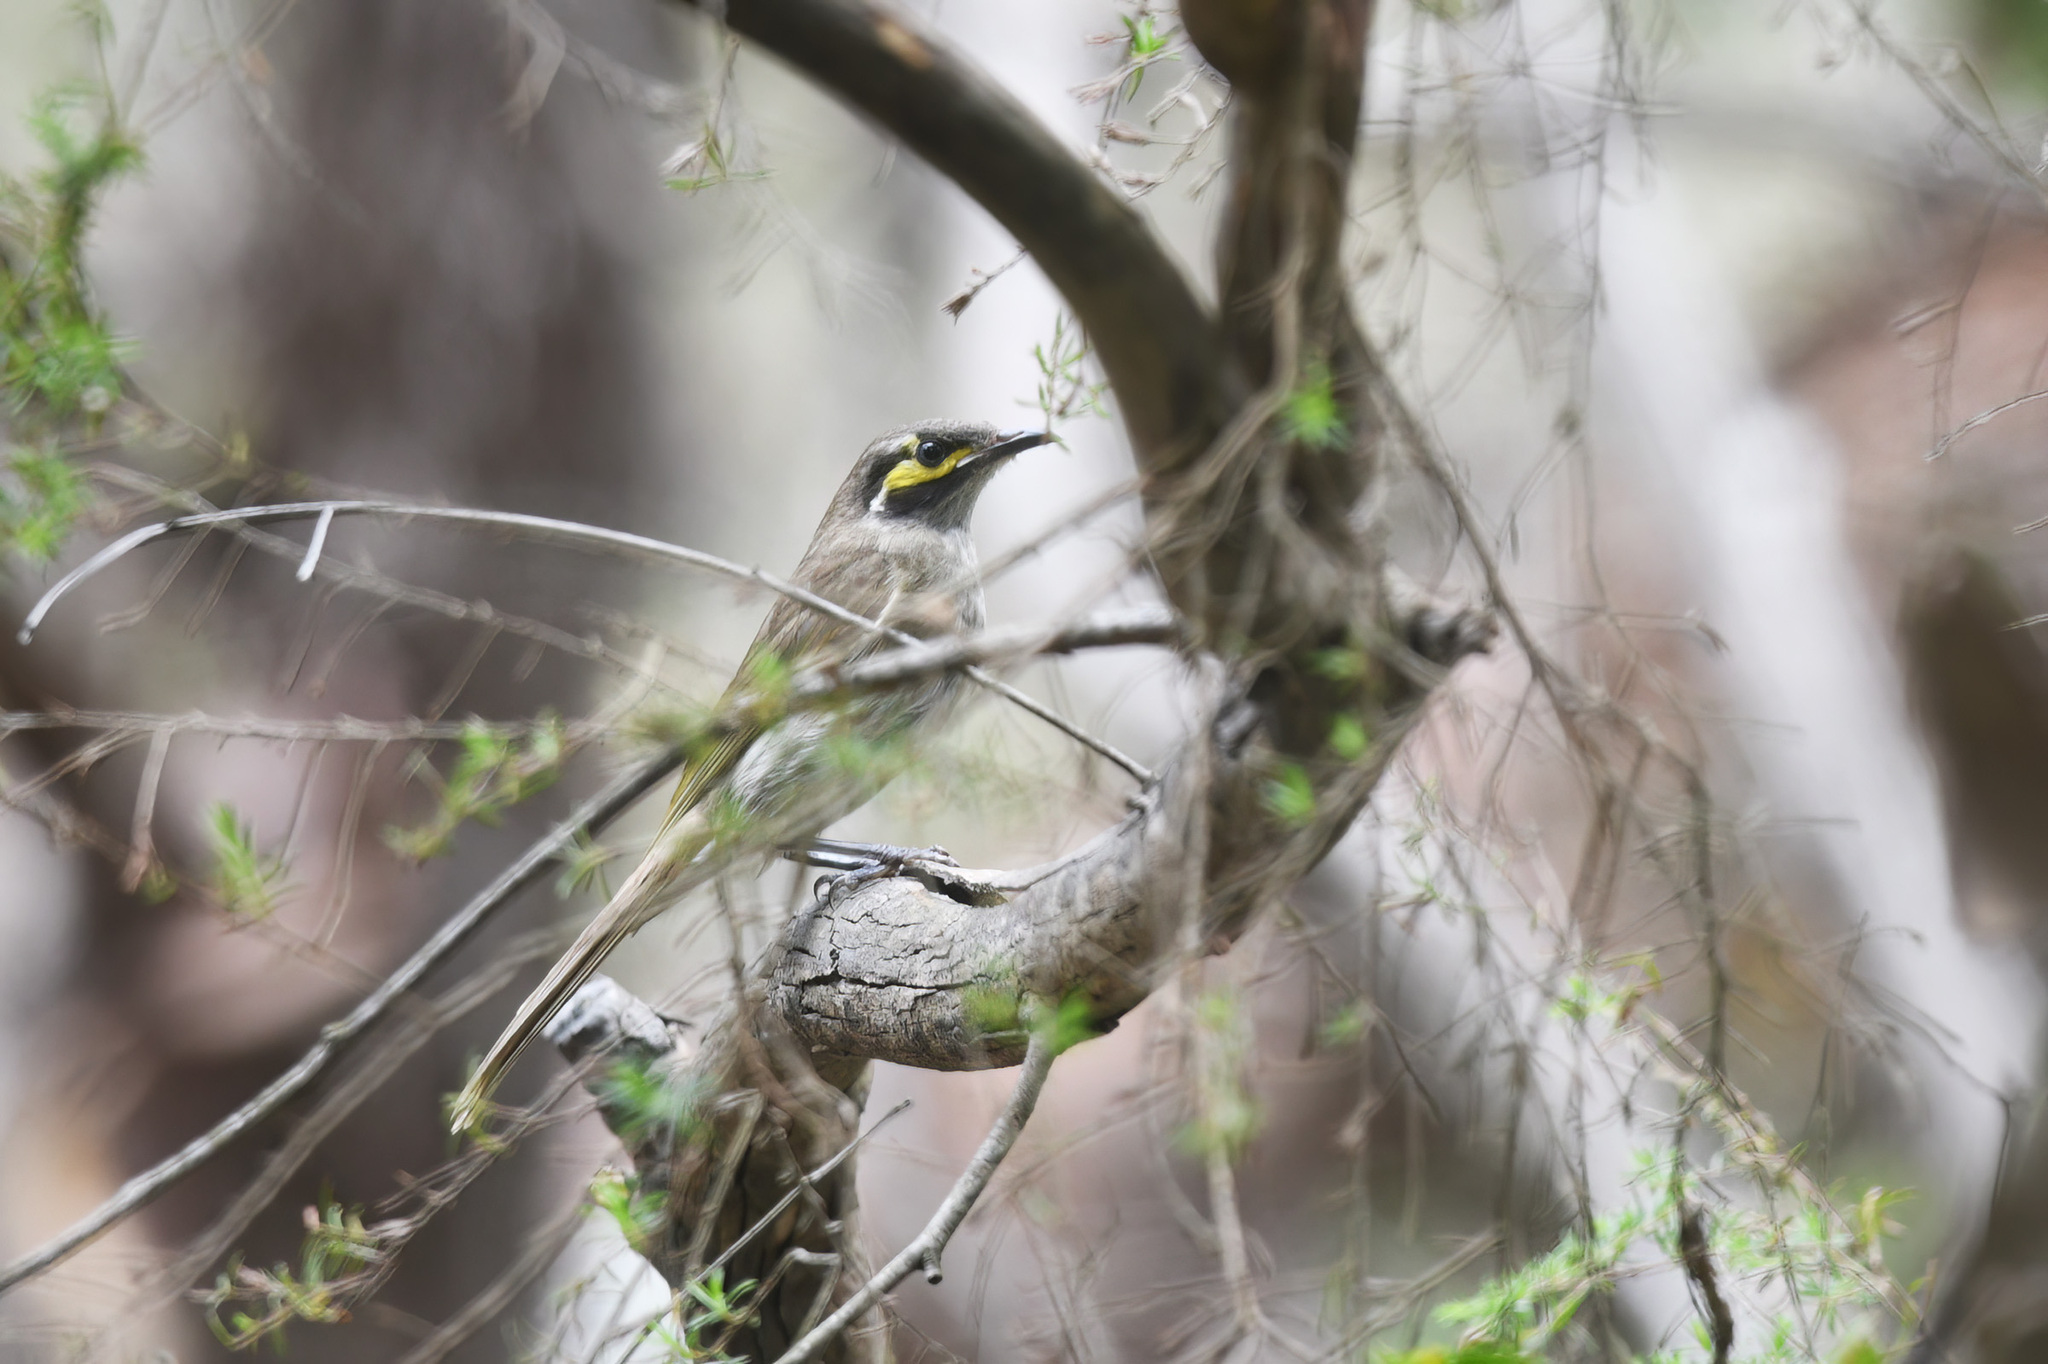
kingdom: Animalia
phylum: Chordata
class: Aves
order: Passeriformes
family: Meliphagidae
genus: Caligavis
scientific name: Caligavis chrysops
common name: Yellow-faced honeyeater
